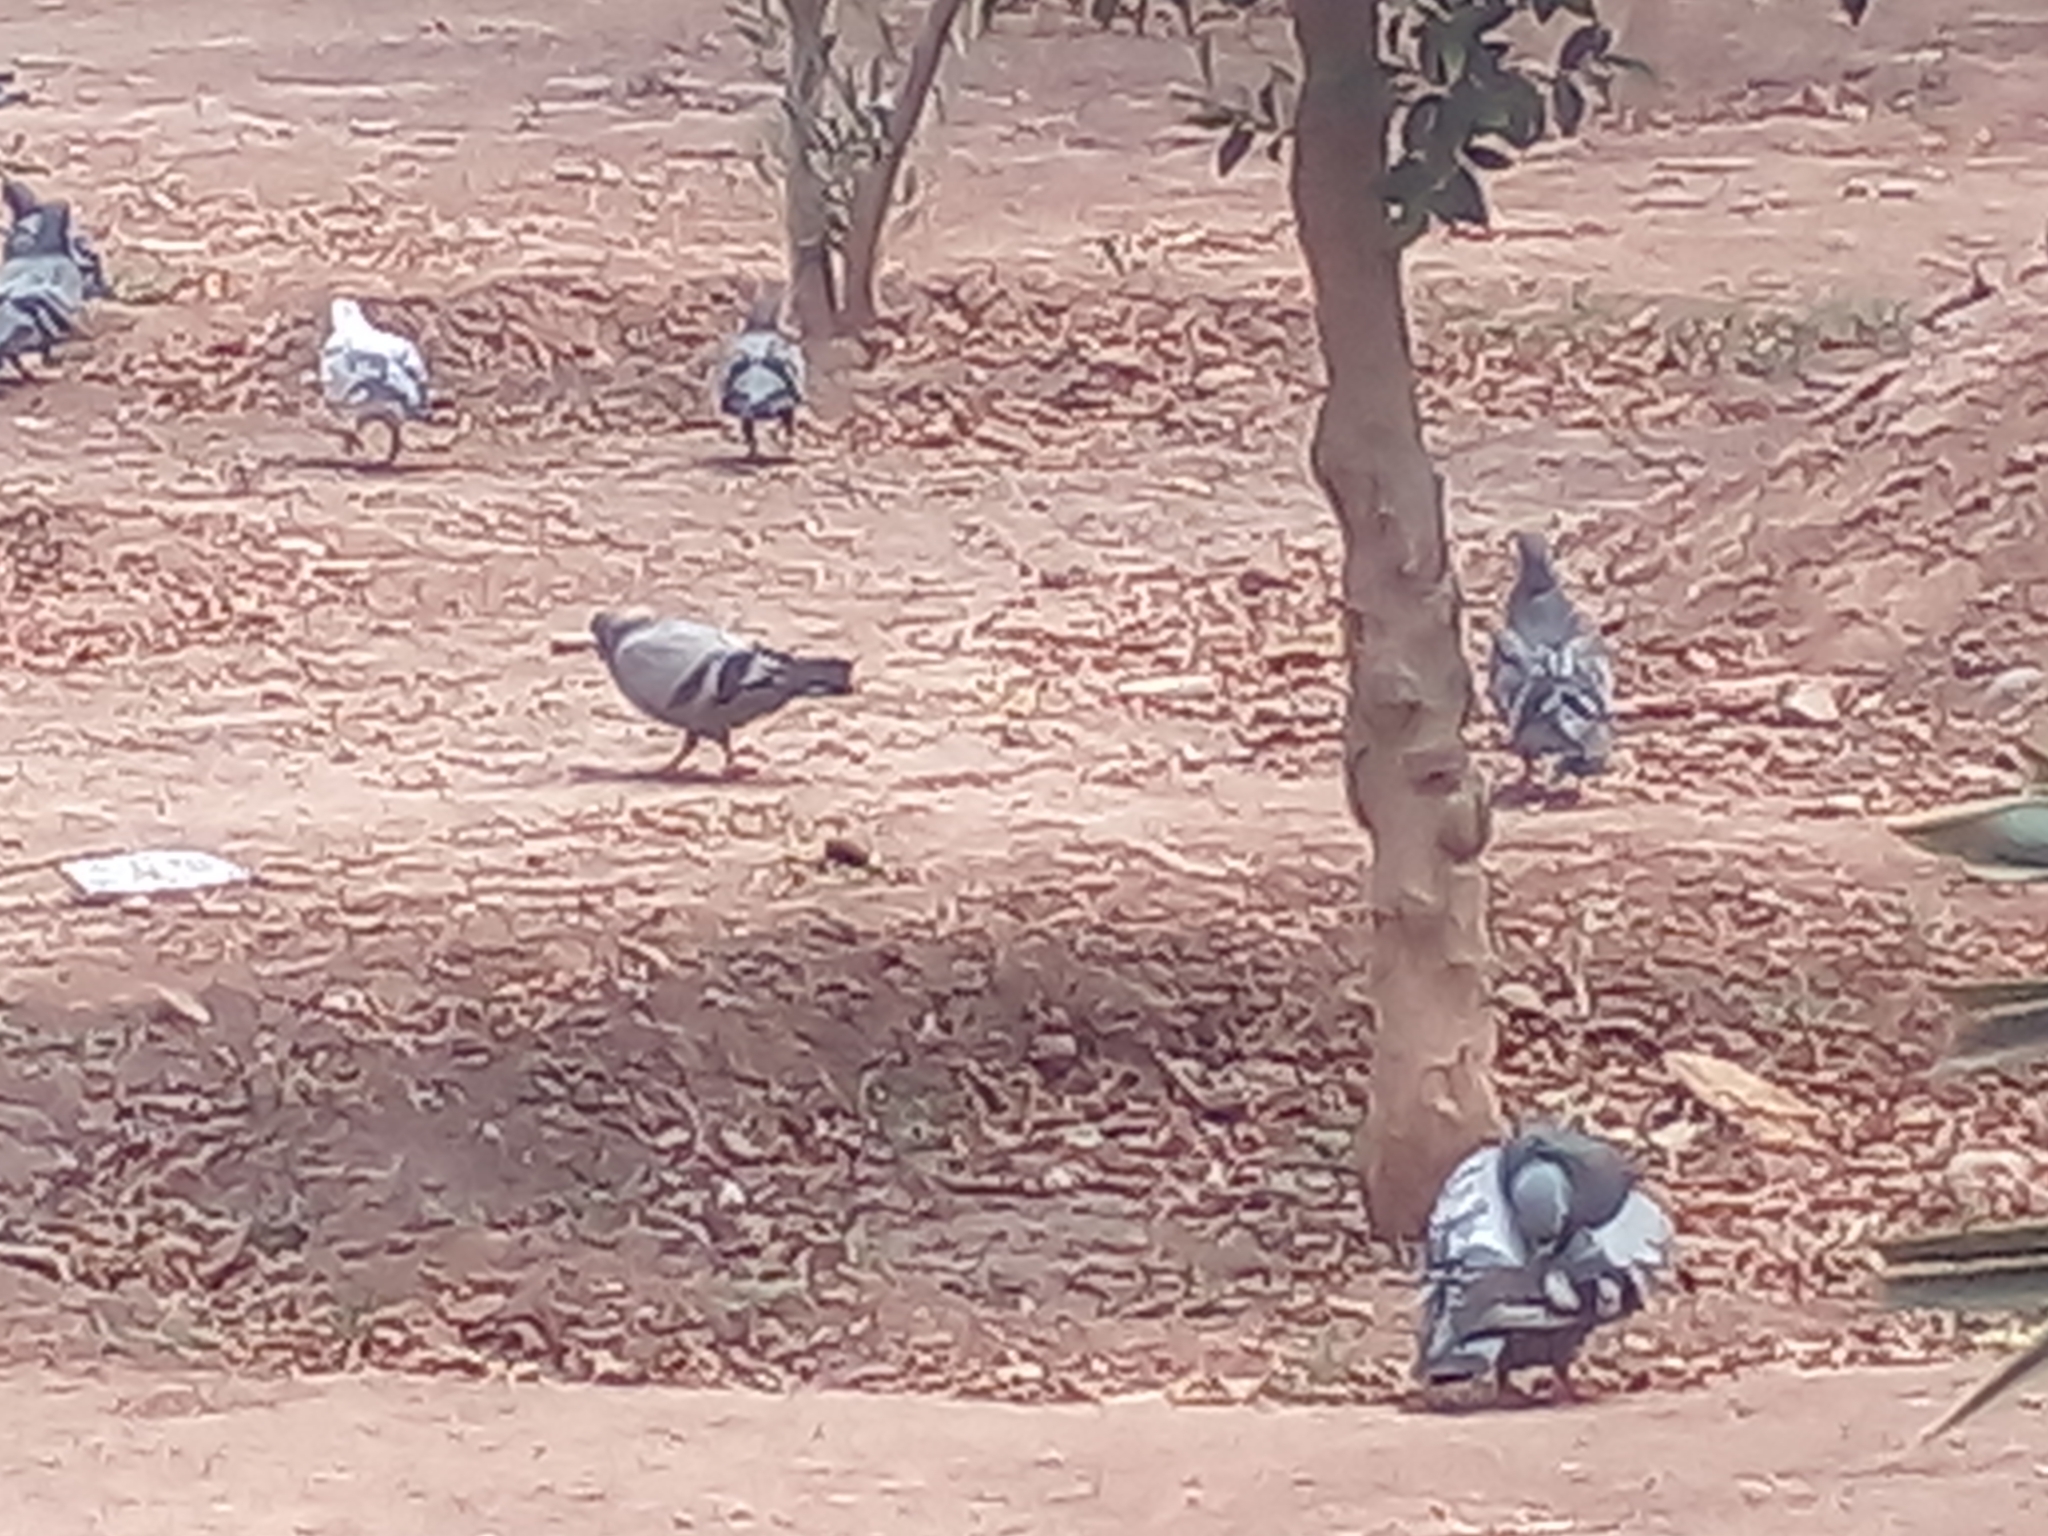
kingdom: Animalia
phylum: Chordata
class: Aves
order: Columbiformes
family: Columbidae
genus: Columba
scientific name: Columba livia
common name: Rock pigeon
